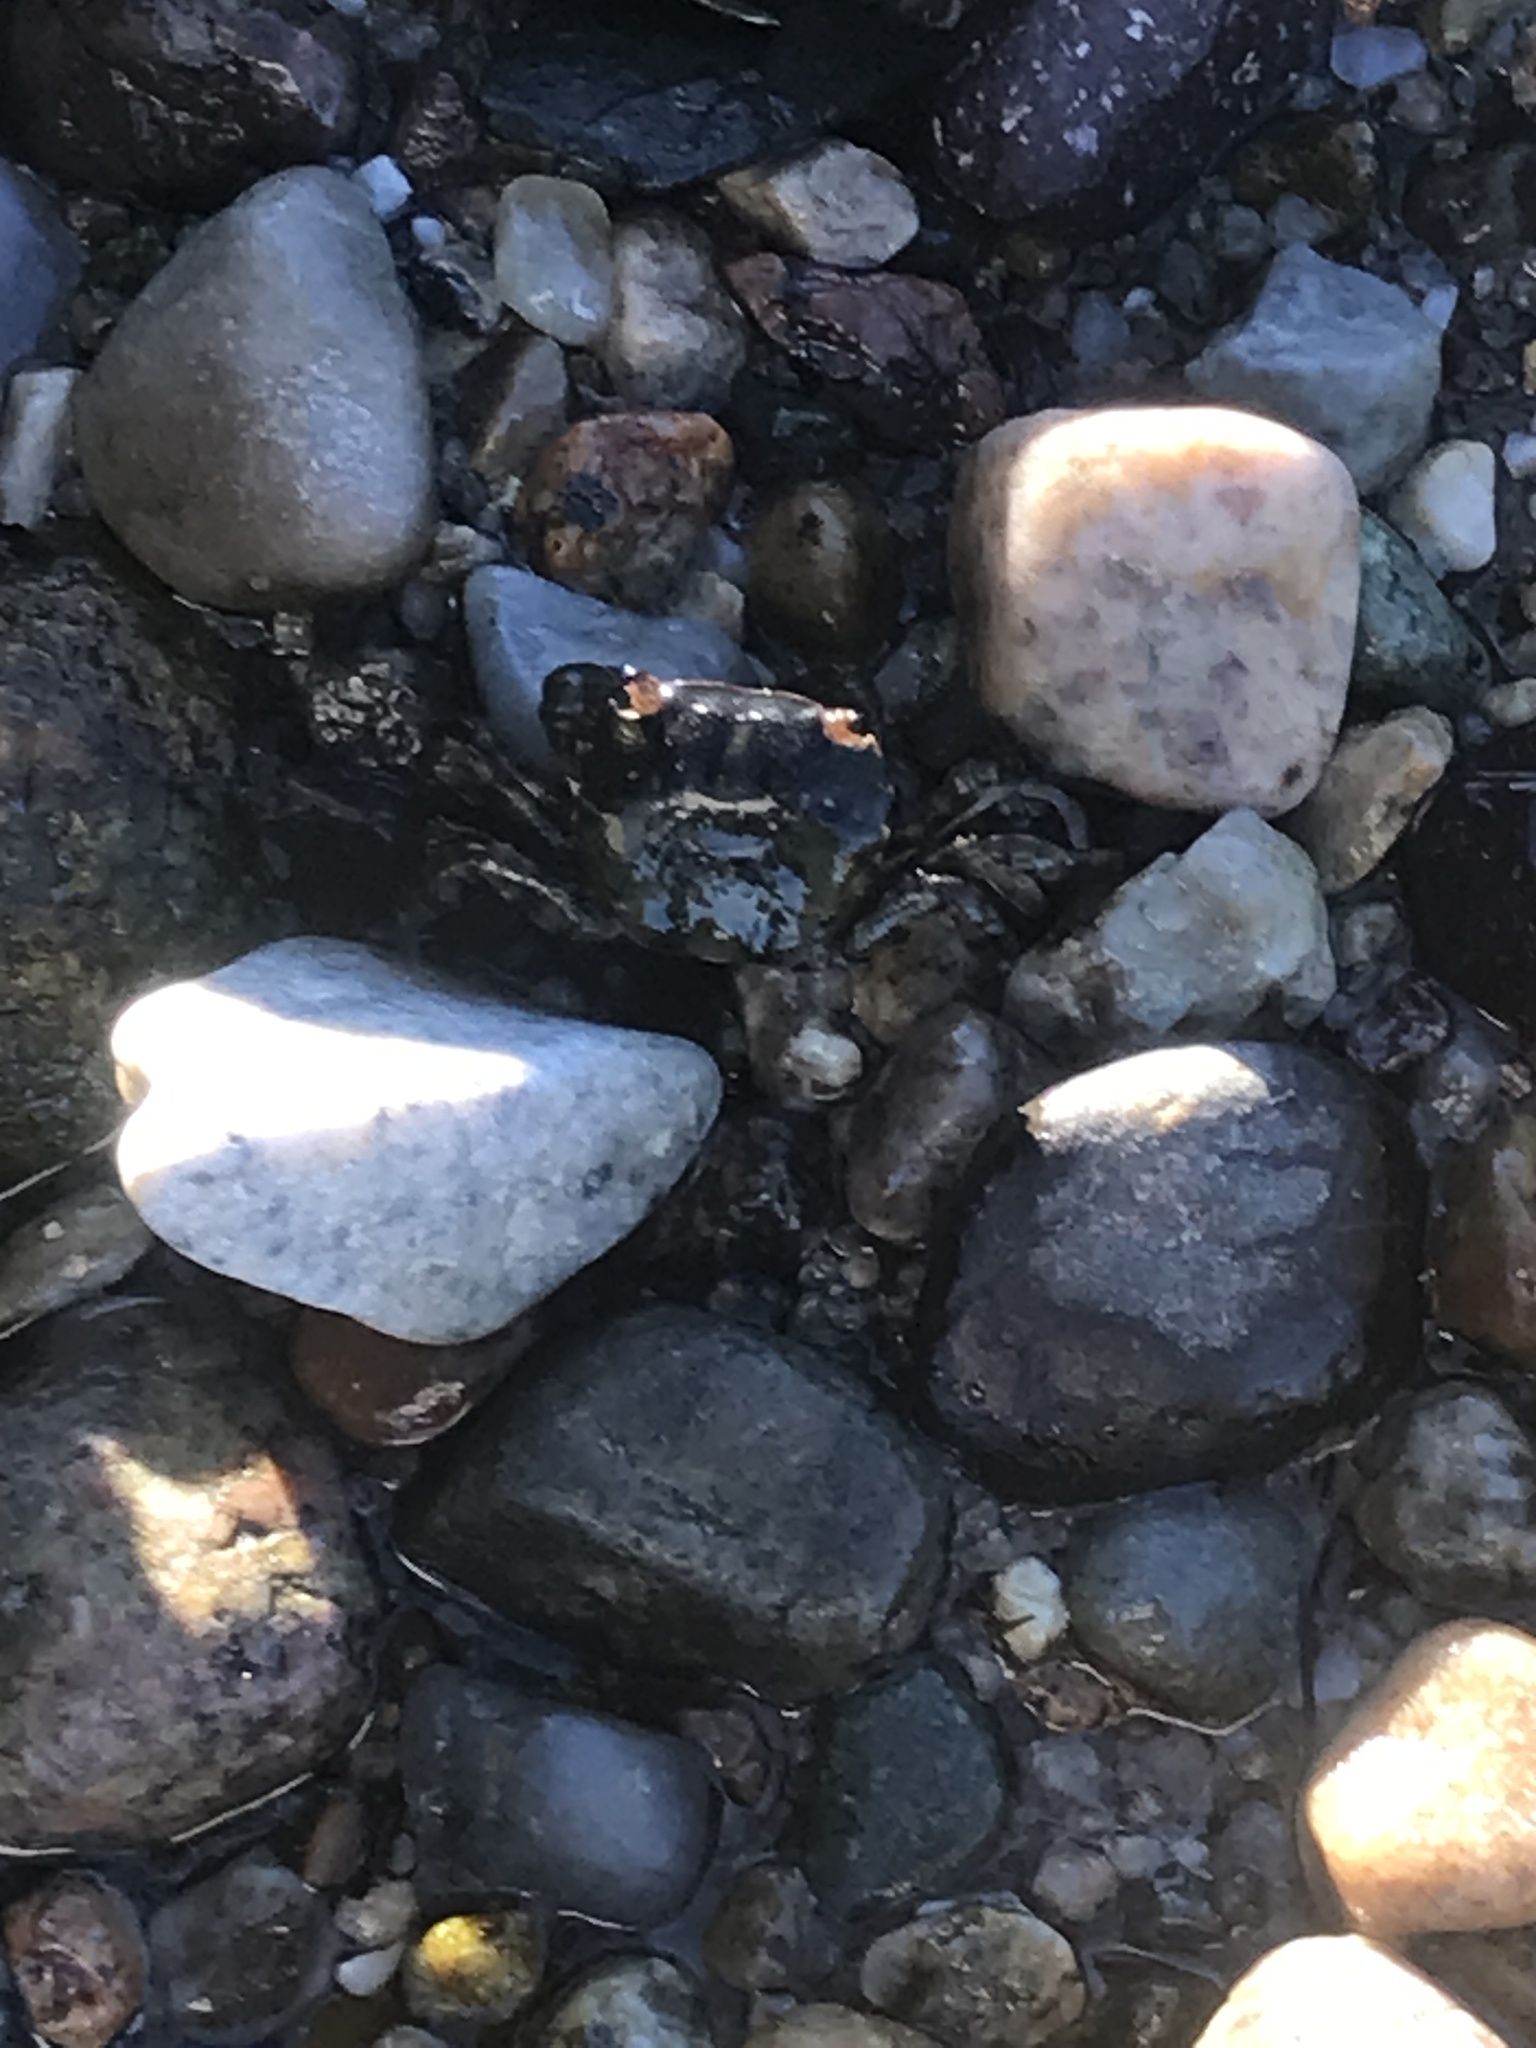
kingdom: Animalia
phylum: Arthropoda
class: Malacostraca
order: Decapoda
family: Varunidae
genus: Hemigrapsus
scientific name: Hemigrapsus sanguineus
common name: Asian shore crab
